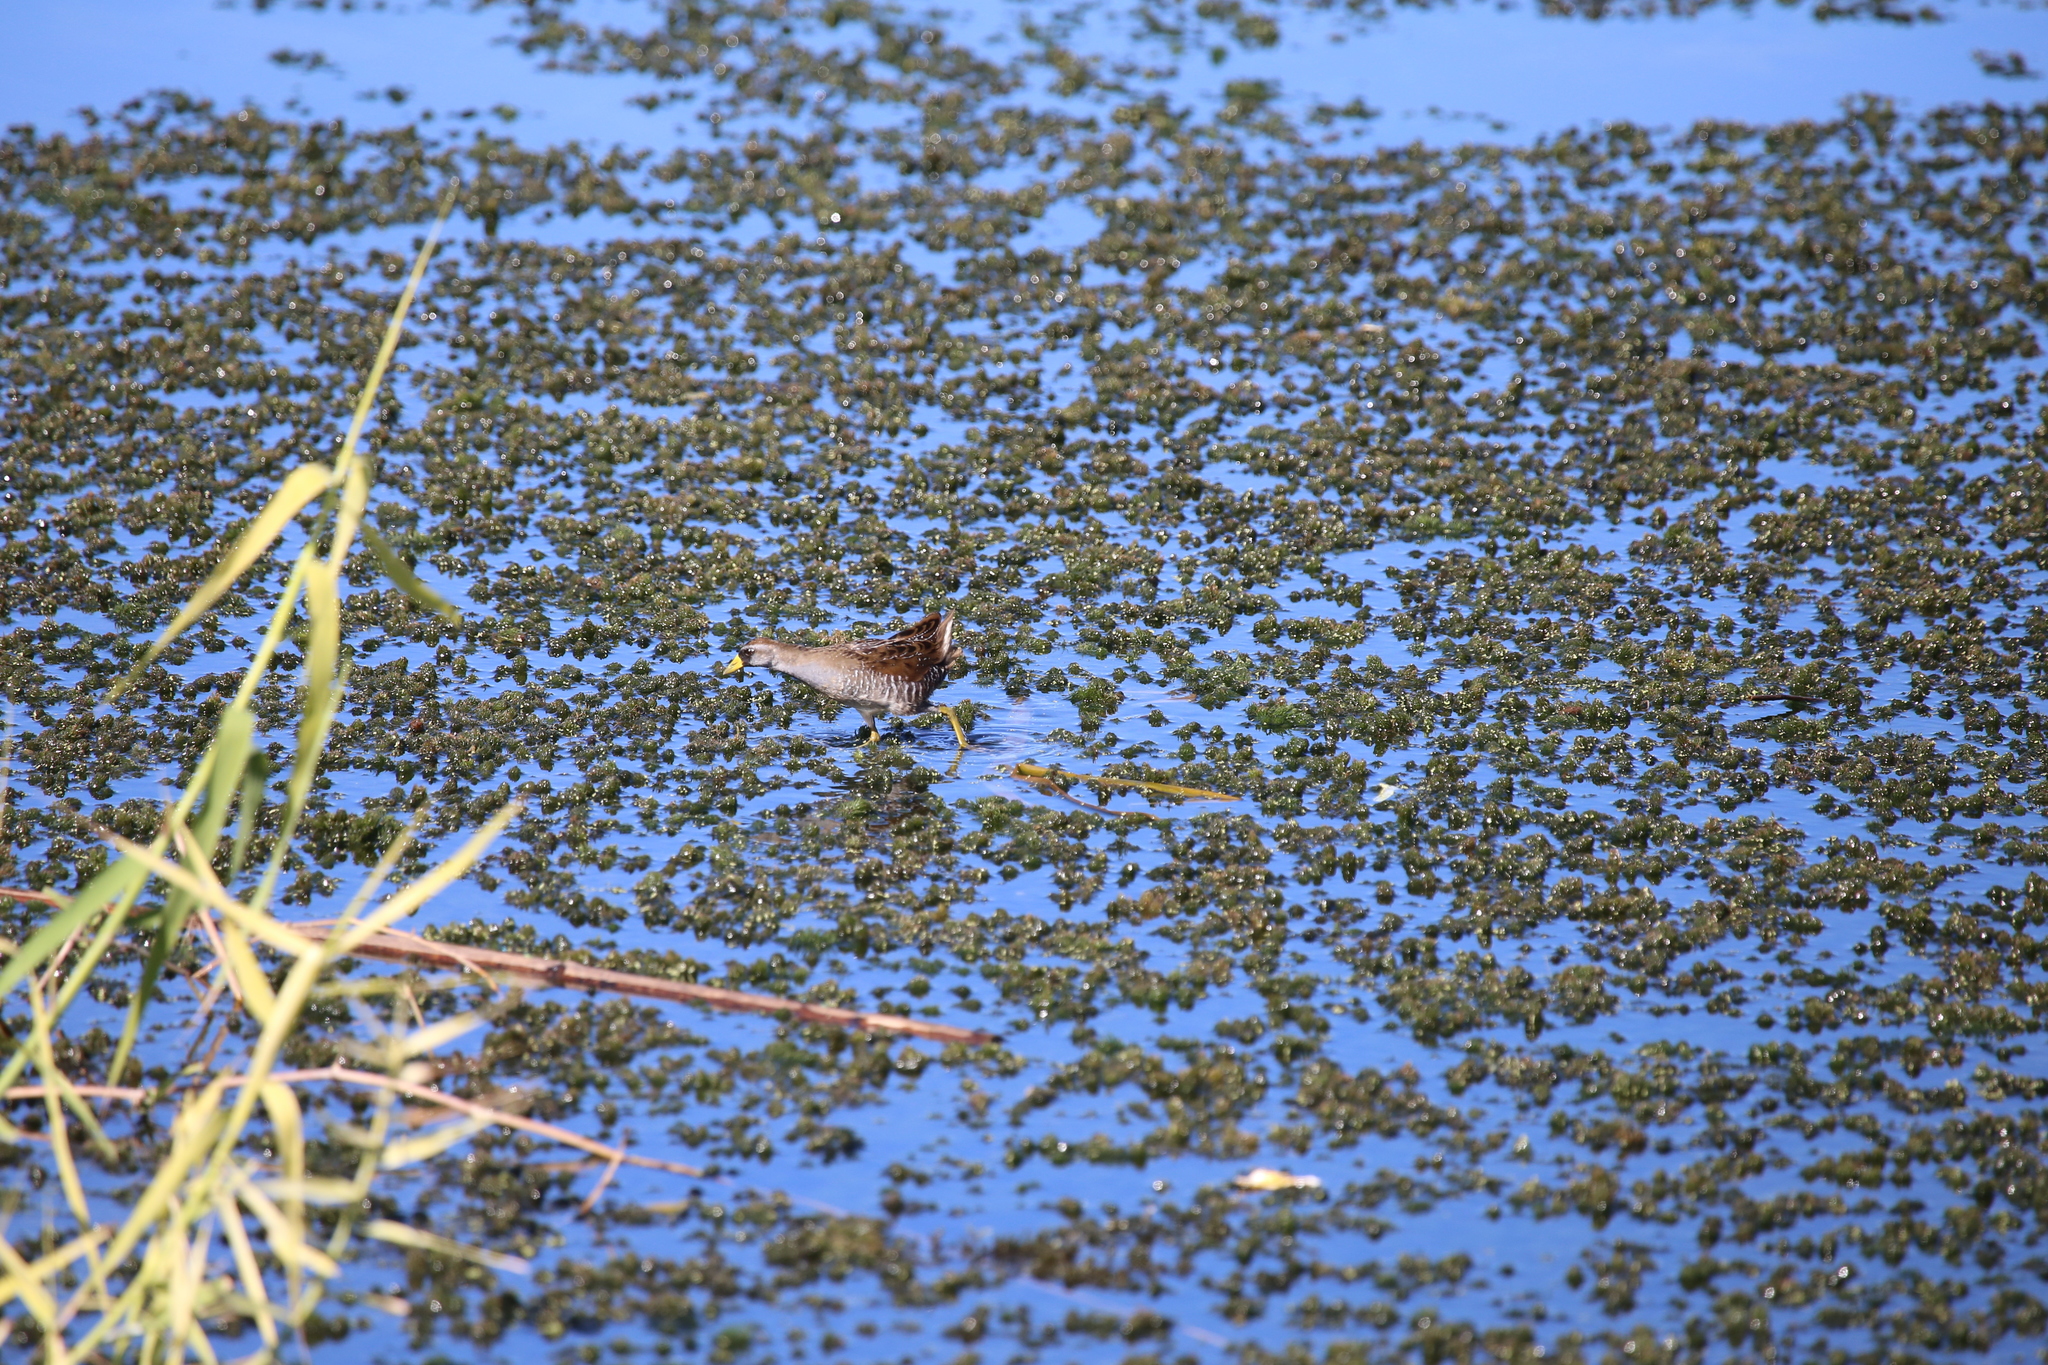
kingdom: Animalia
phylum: Chordata
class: Aves
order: Gruiformes
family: Rallidae
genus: Porzana
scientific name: Porzana carolina
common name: Sora
